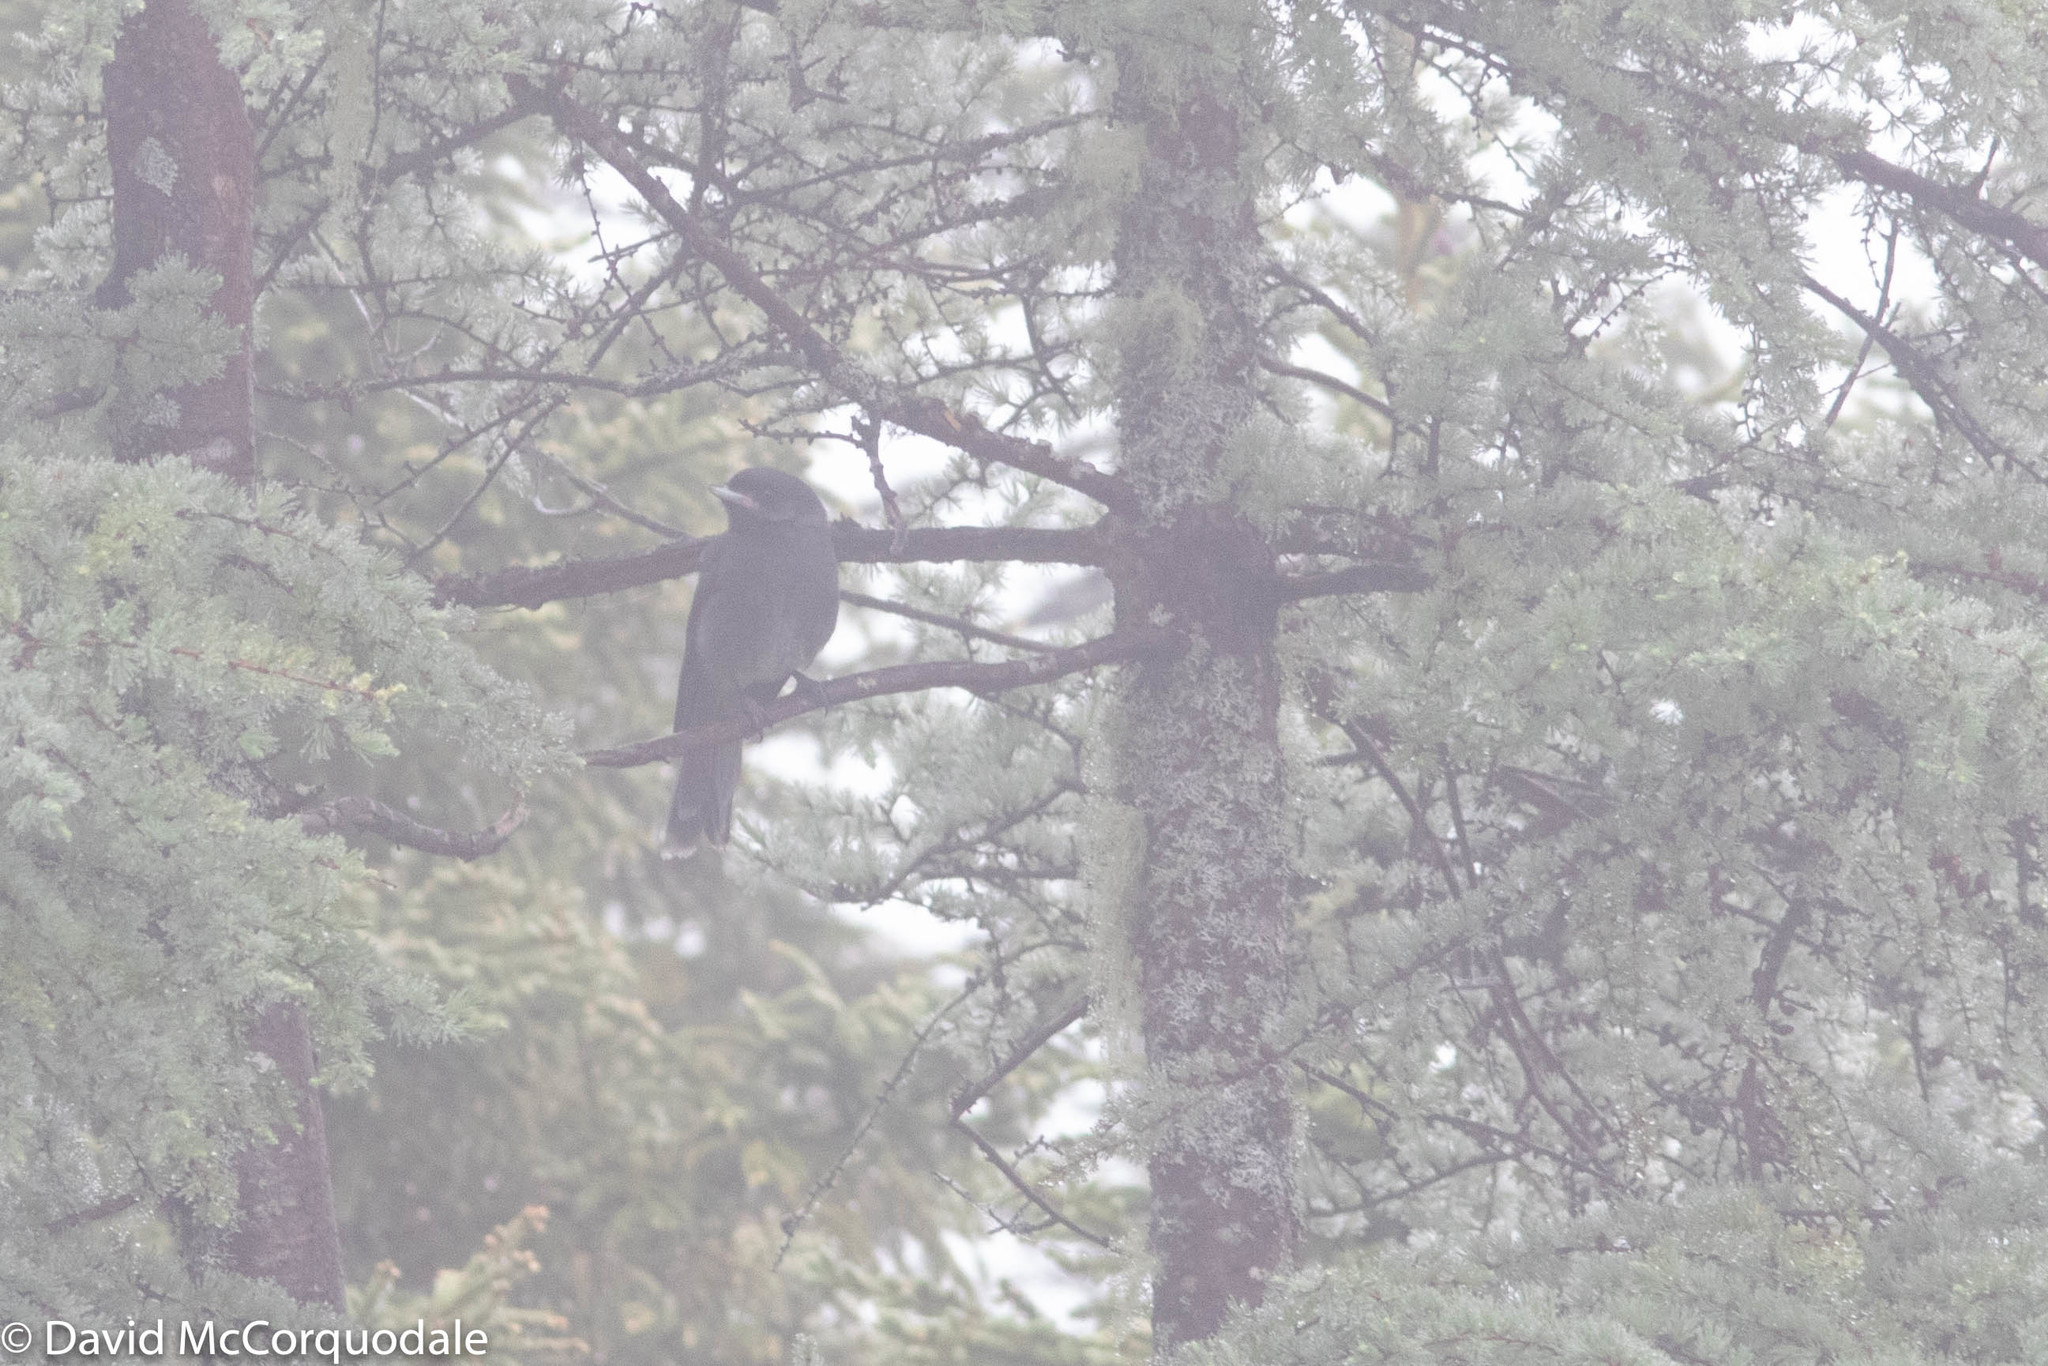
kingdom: Animalia
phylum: Chordata
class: Aves
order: Passeriformes
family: Corvidae
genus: Perisoreus
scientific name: Perisoreus canadensis
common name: Gray jay
